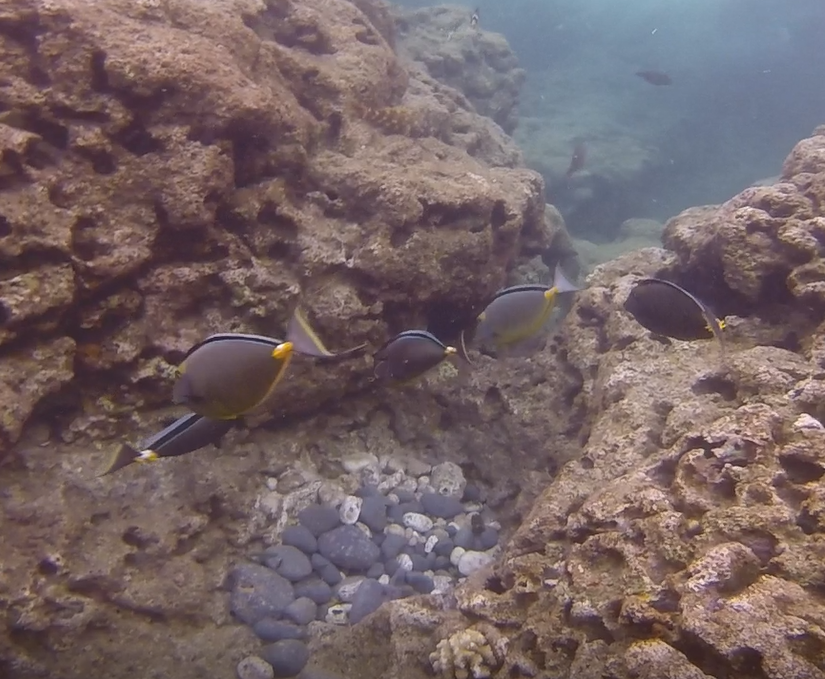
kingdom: Animalia
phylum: Chordata
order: Perciformes
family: Acanthuridae
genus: Naso
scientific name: Naso lituratus
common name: Orangespine unicornfish
